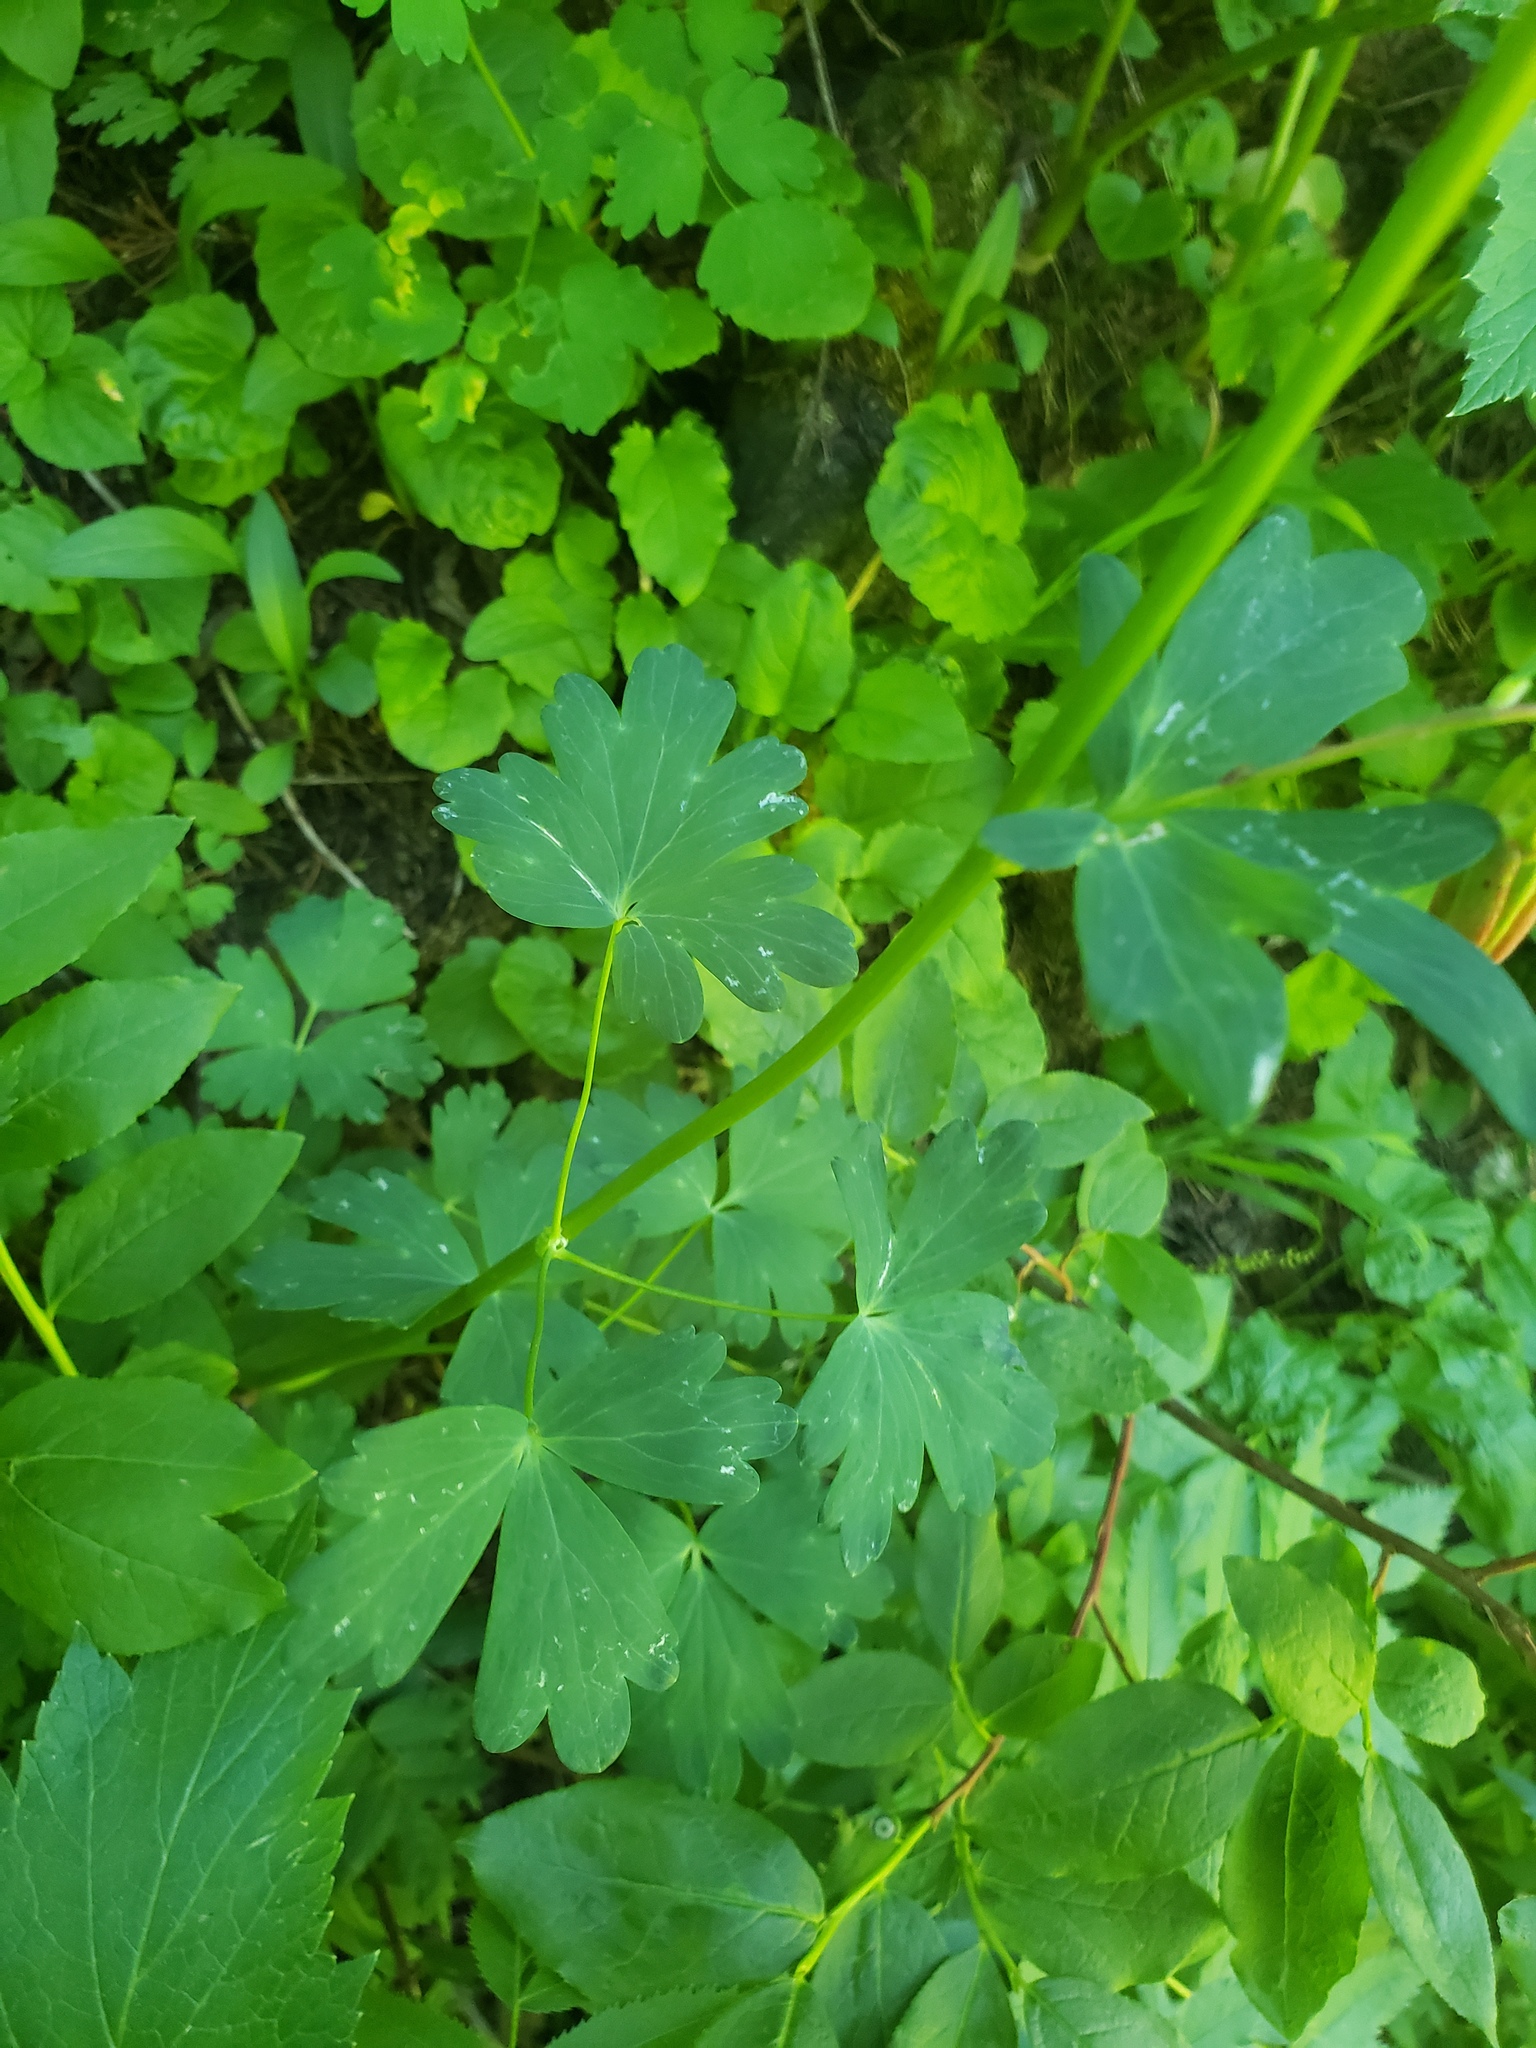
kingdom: Plantae
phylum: Tracheophyta
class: Magnoliopsida
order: Ranunculales
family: Ranunculaceae
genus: Aquilegia
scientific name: Aquilegia formosa
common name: Sitka columbine
